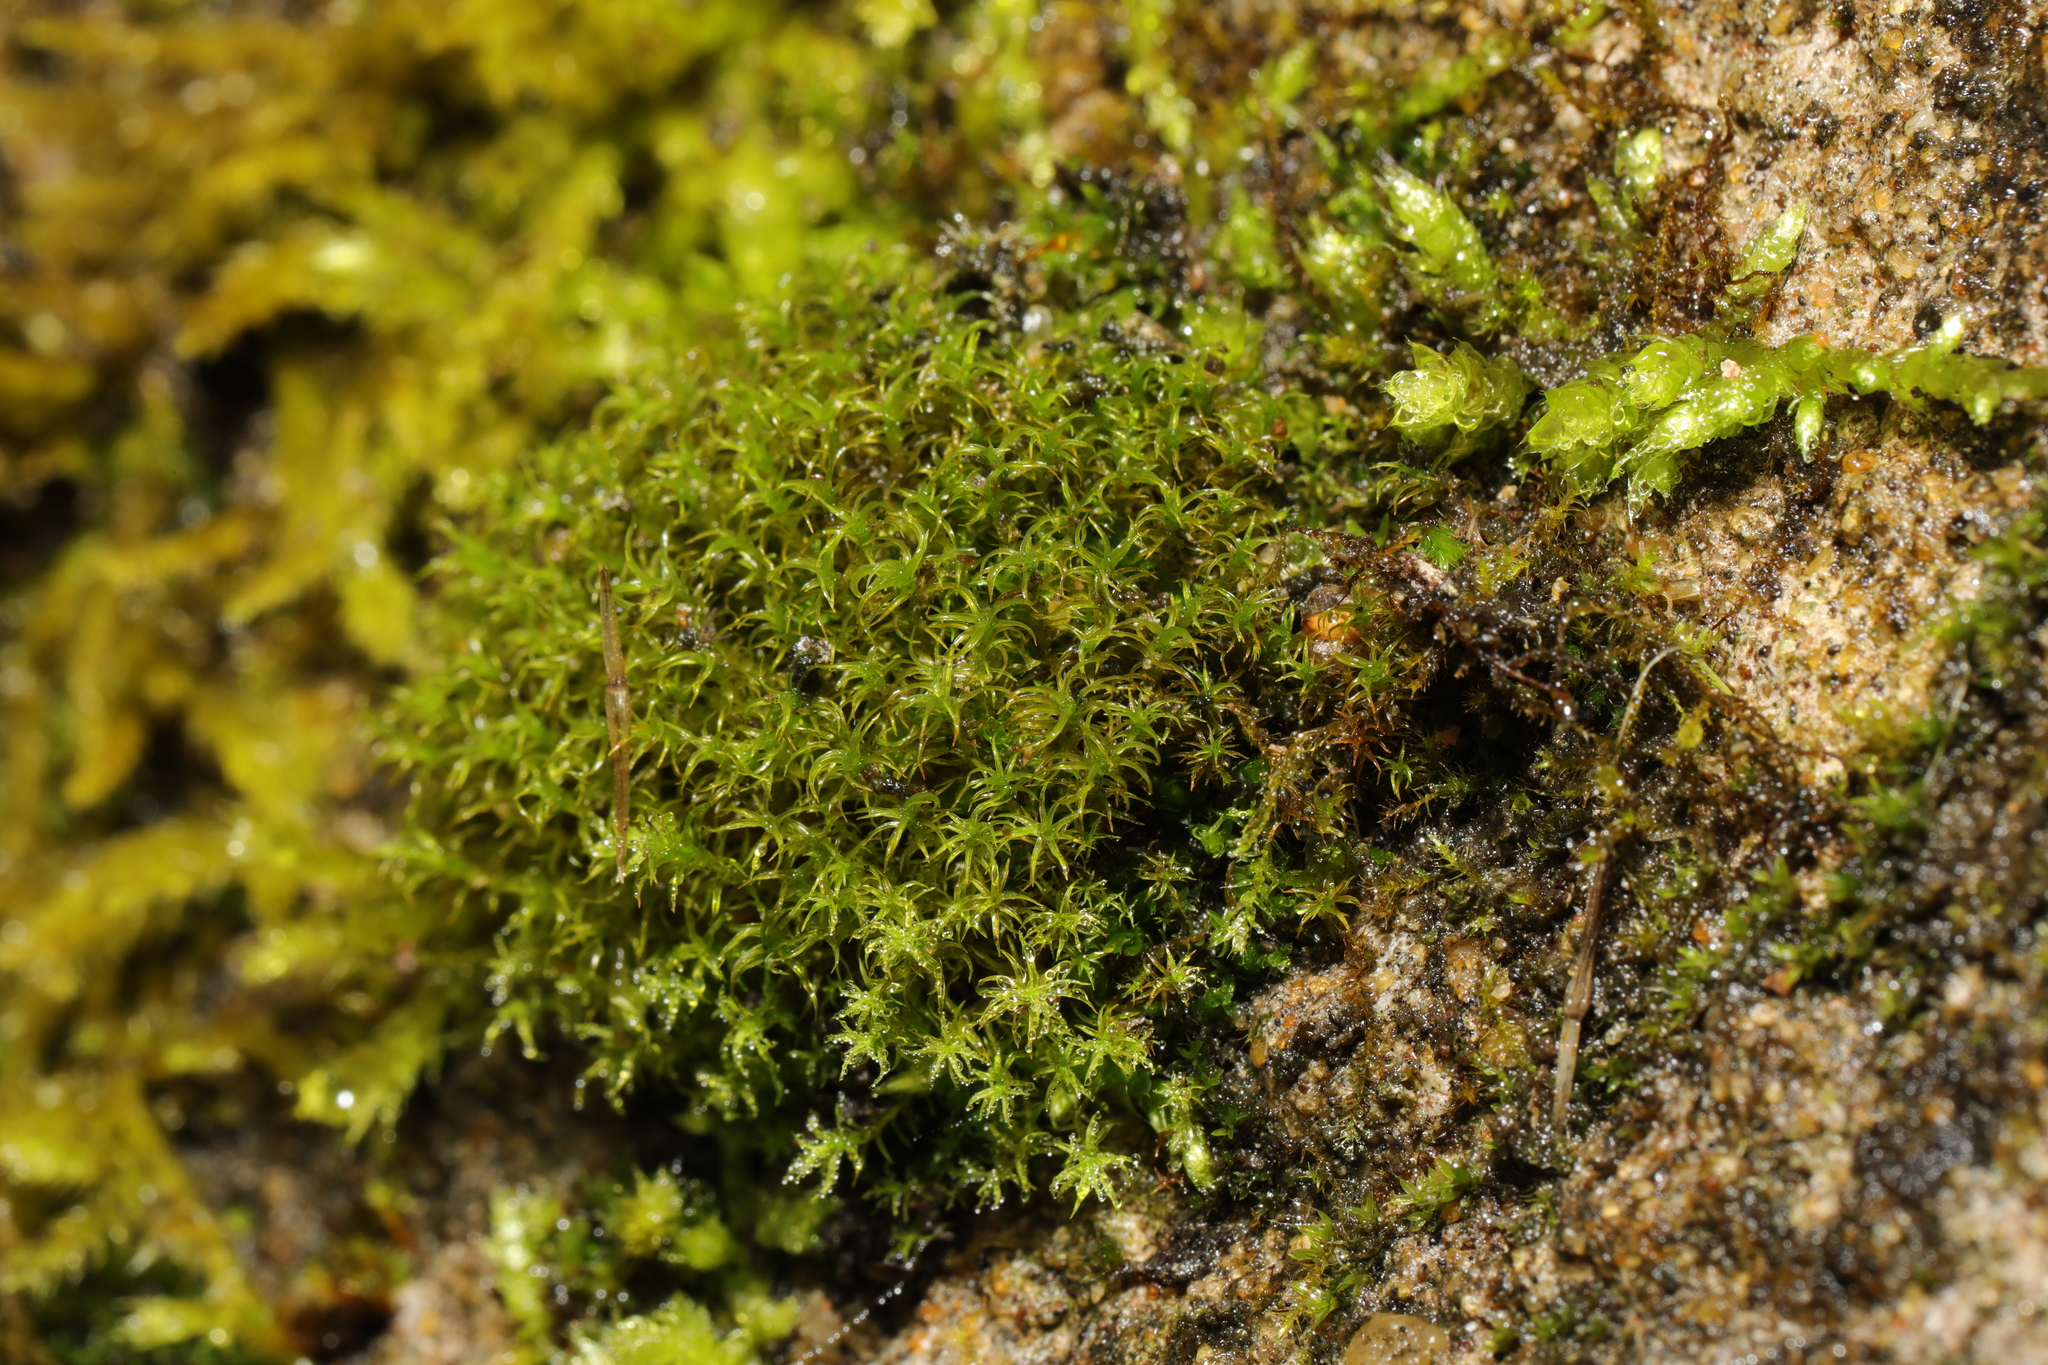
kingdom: Plantae
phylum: Bryophyta
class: Bryopsida
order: Pottiales
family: Pottiaceae
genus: Vinealobryum
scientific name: Vinealobryum insulanum
